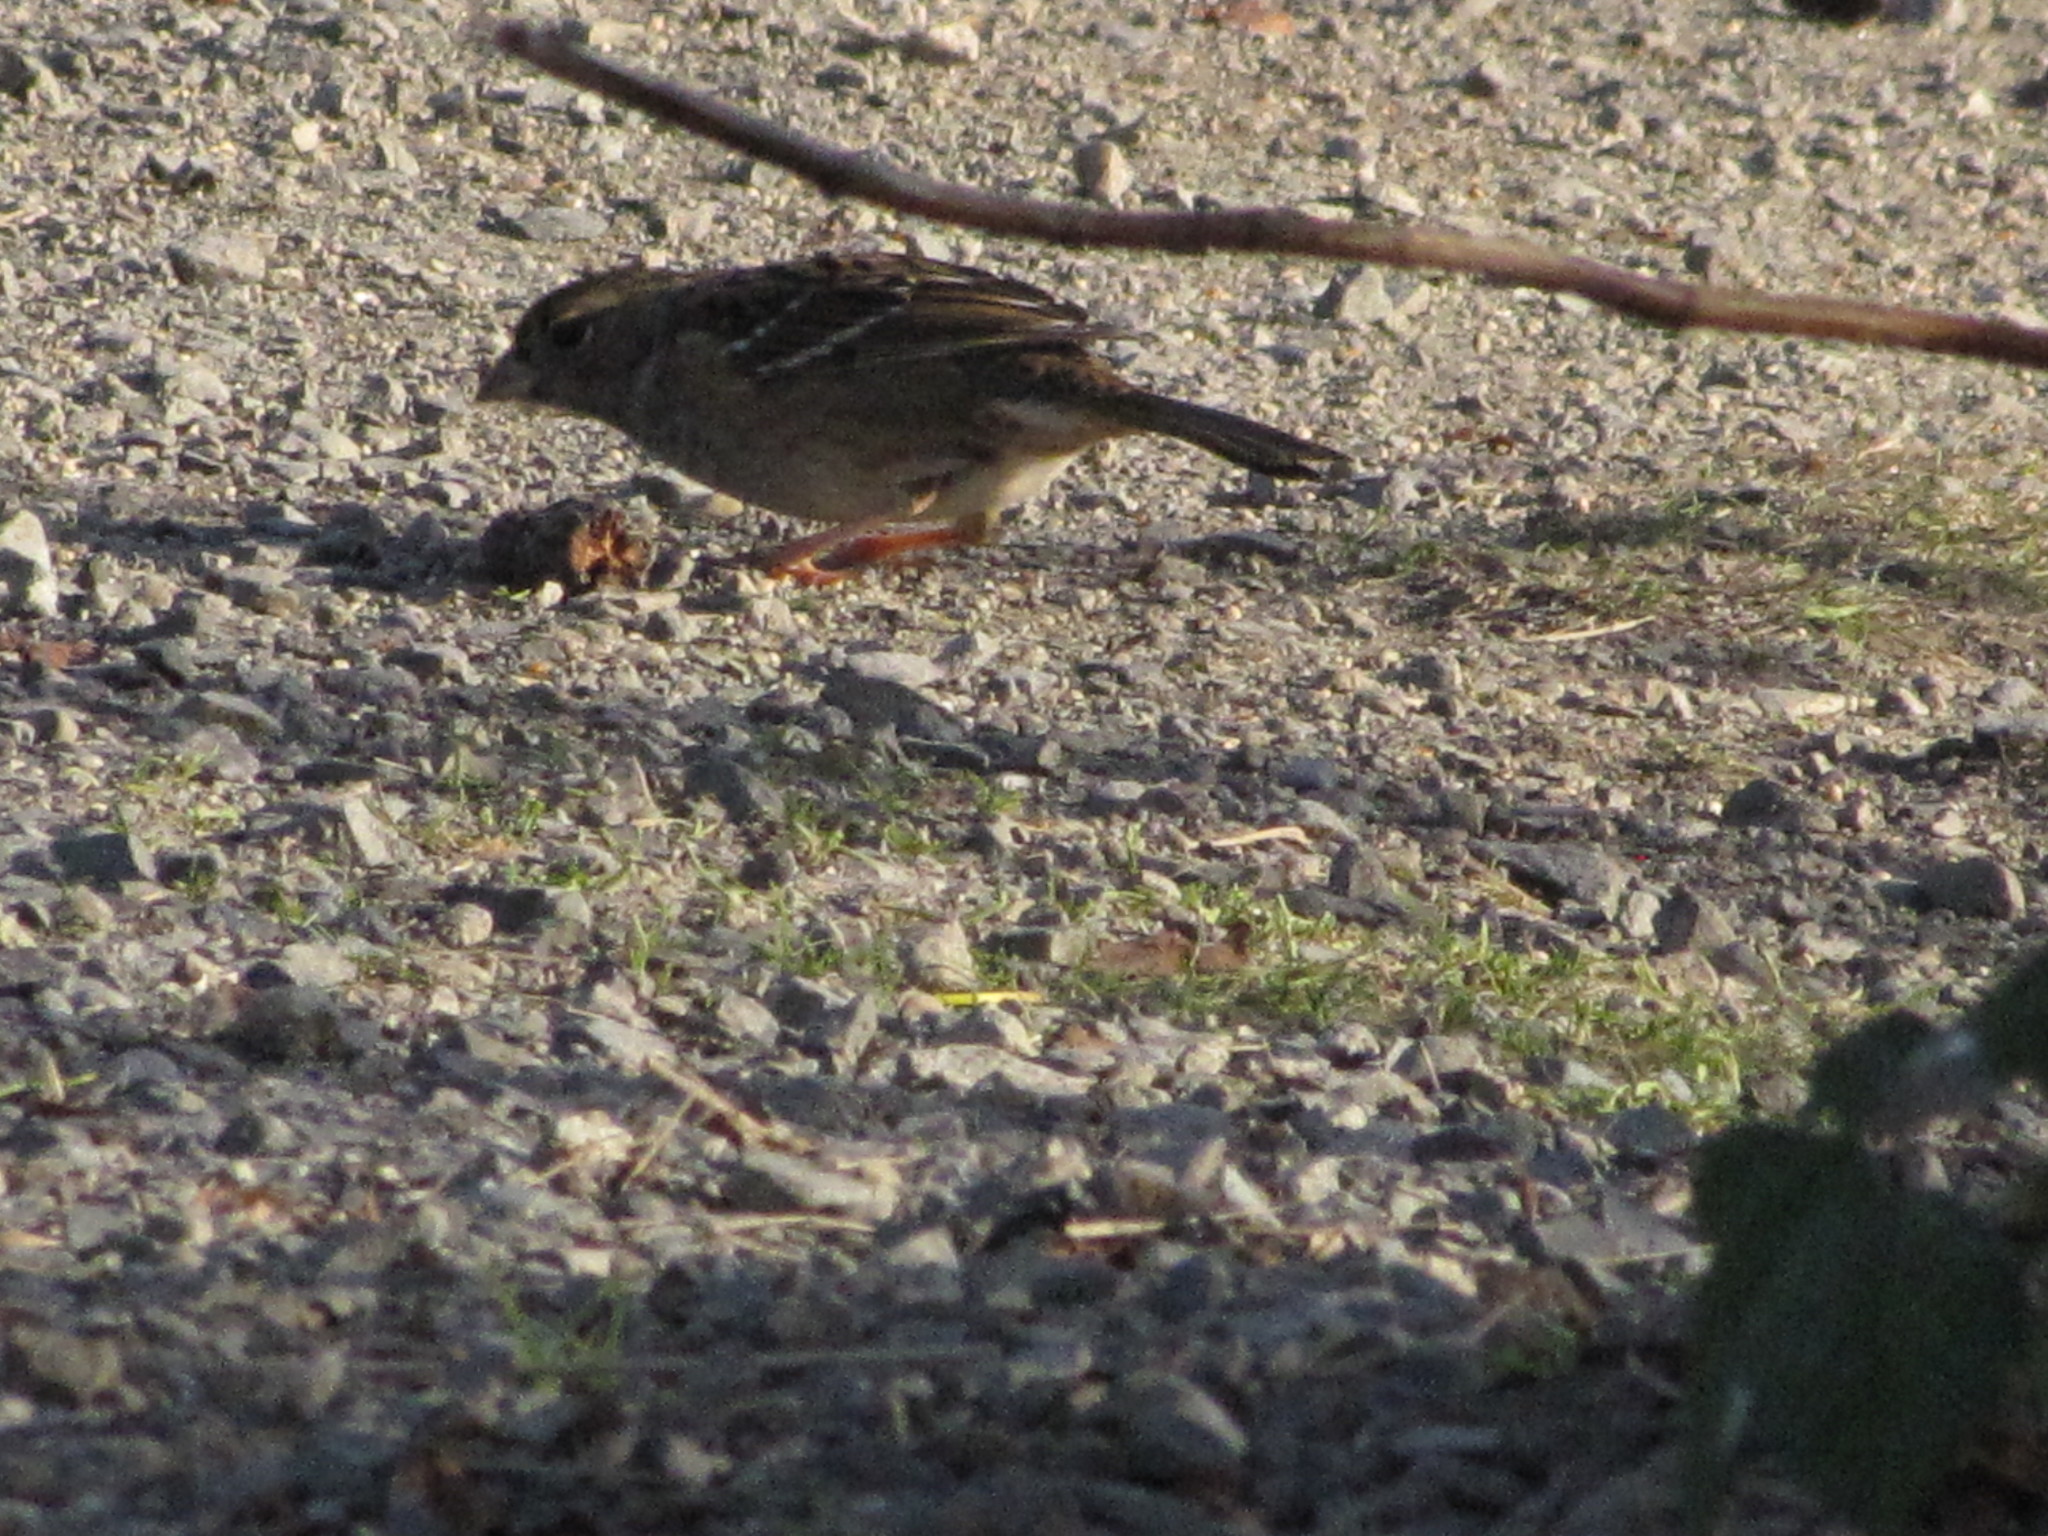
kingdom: Animalia
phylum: Chordata
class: Aves
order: Passeriformes
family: Passerellidae
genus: Zonotrichia
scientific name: Zonotrichia atricapilla
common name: Golden-crowned sparrow
